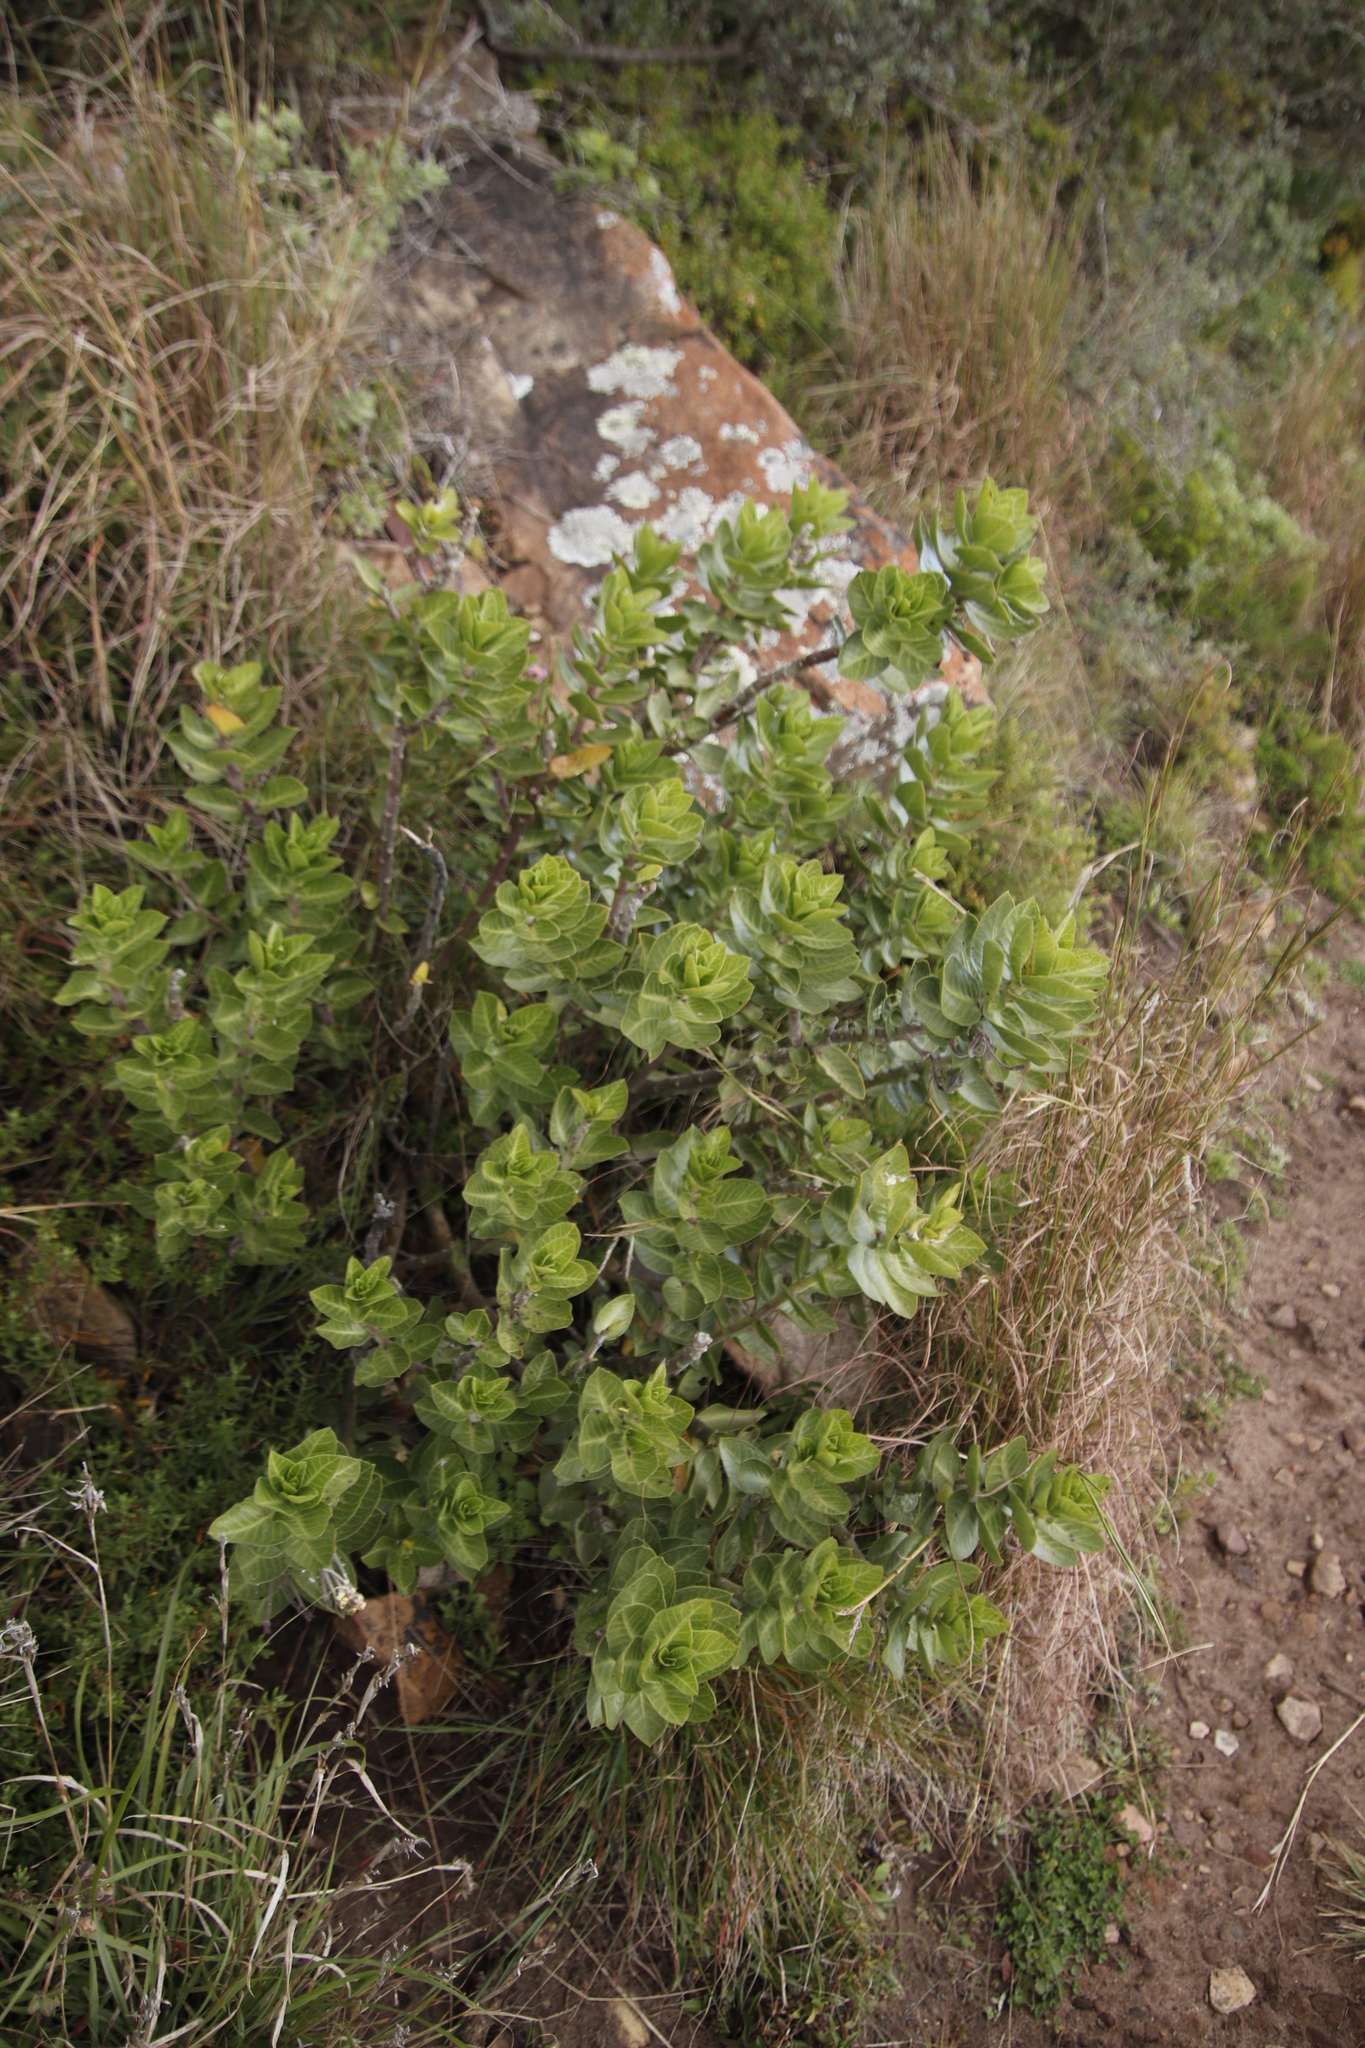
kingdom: Plantae
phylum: Tracheophyta
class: Magnoliopsida
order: Gentianales
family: Apocynaceae
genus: Gomphocarpus
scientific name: Gomphocarpus cancellatus
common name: Wild cotton
